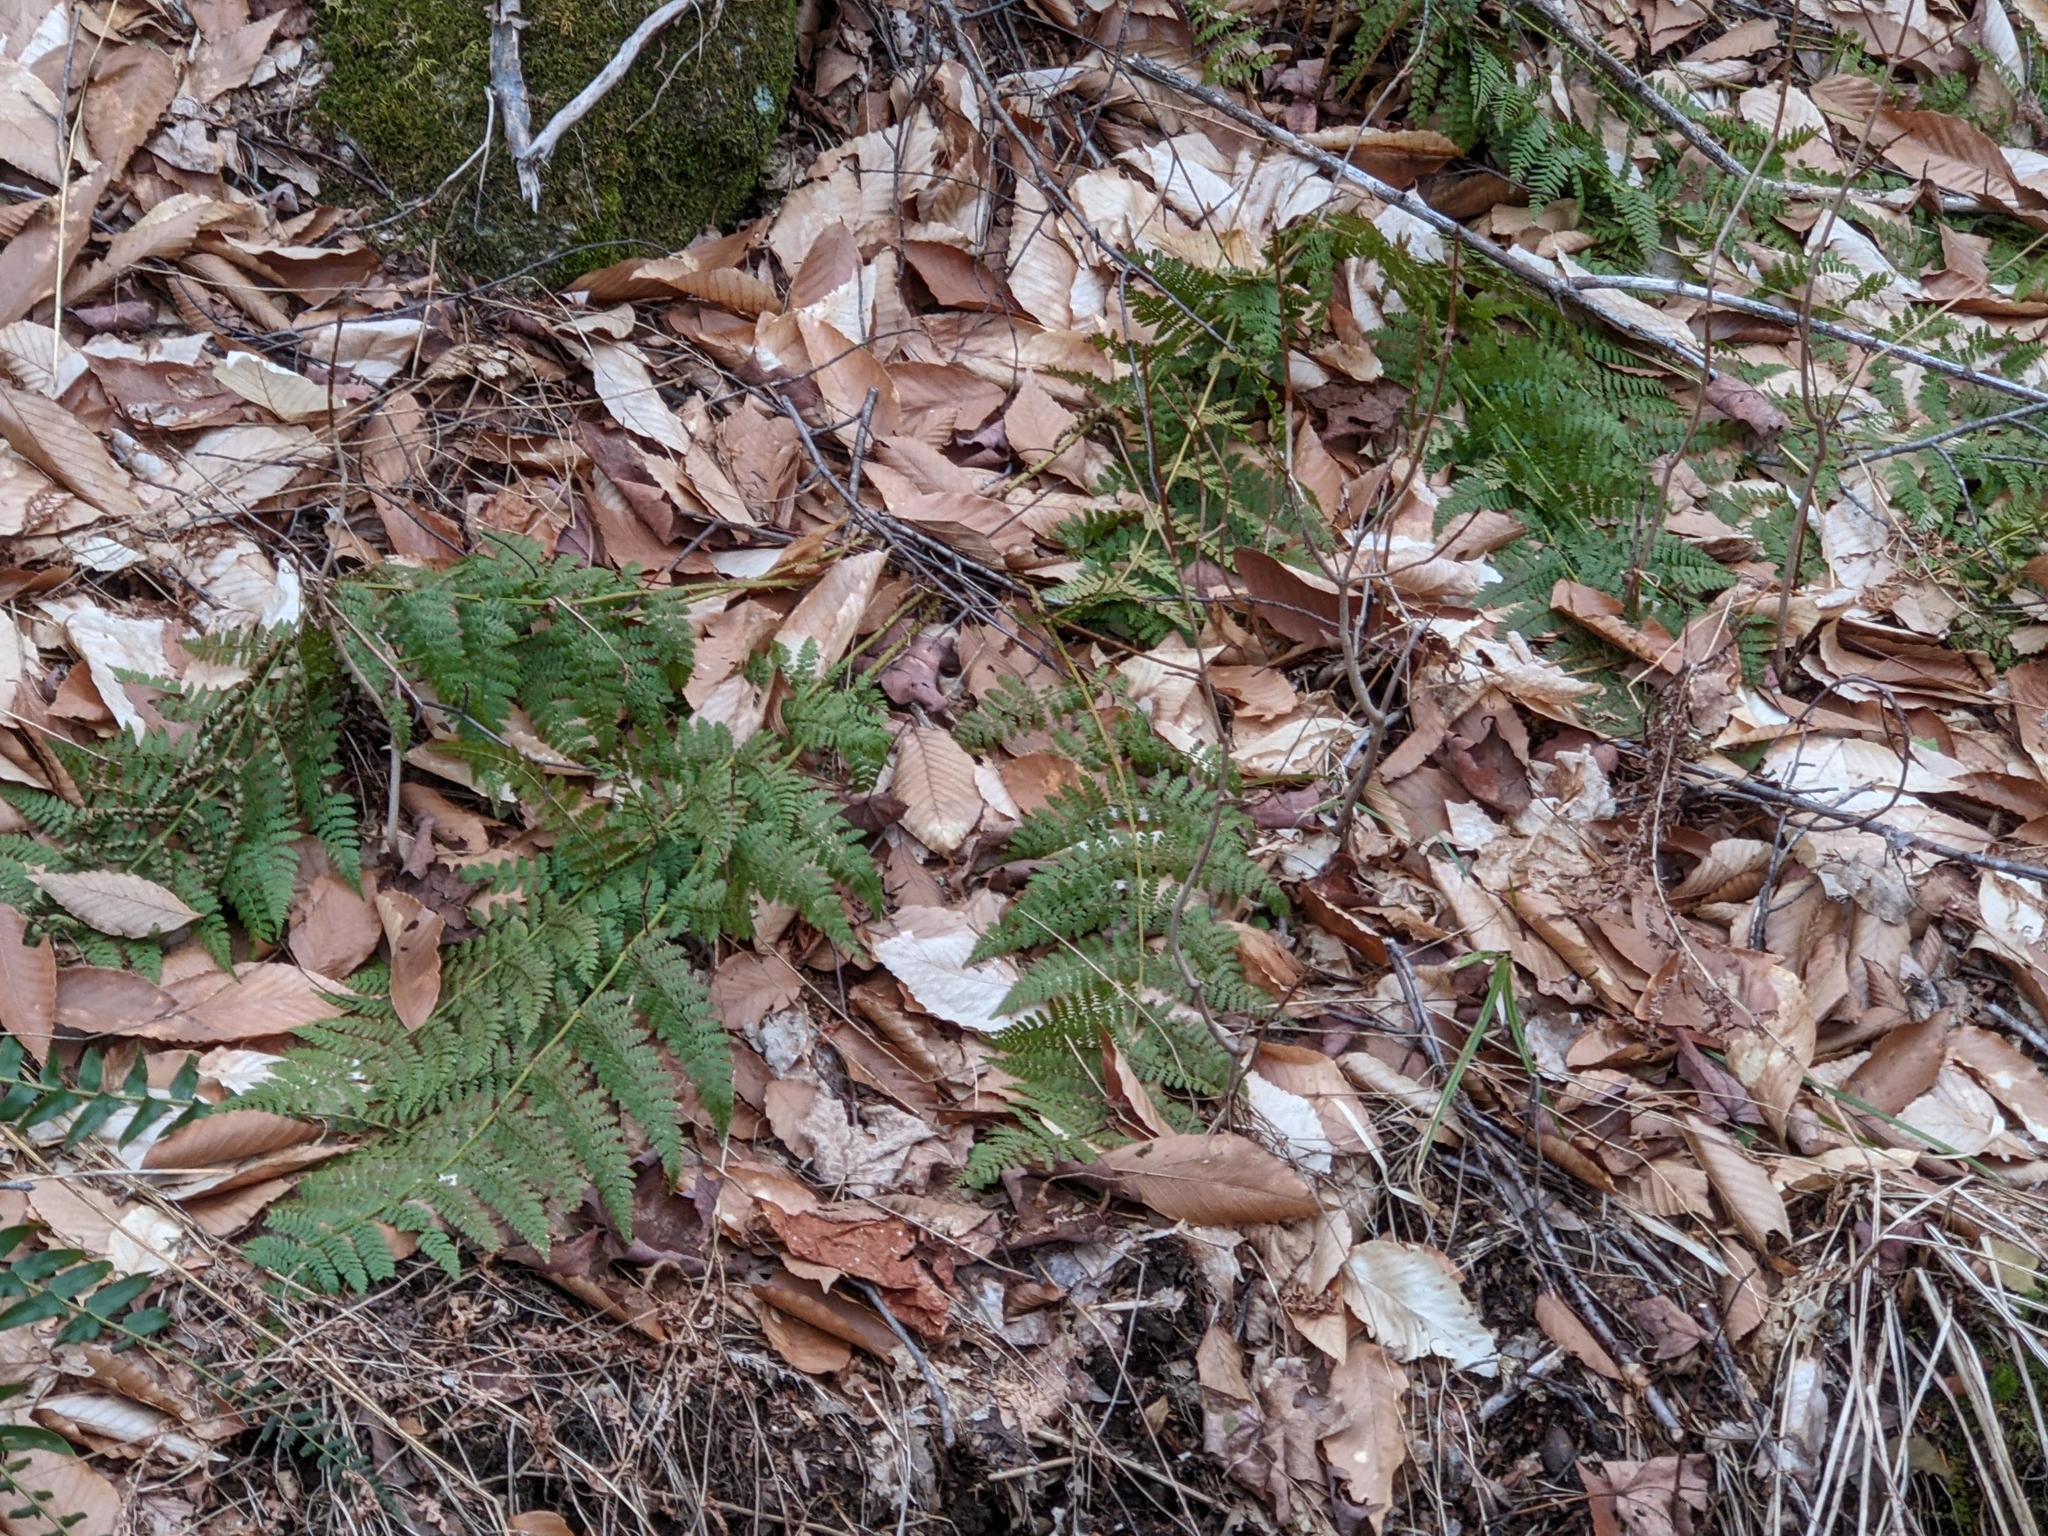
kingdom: Plantae
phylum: Tracheophyta
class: Polypodiopsida
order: Polypodiales
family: Dryopteridaceae
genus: Dryopteris
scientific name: Dryopteris intermedia
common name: Evergreen wood fern
